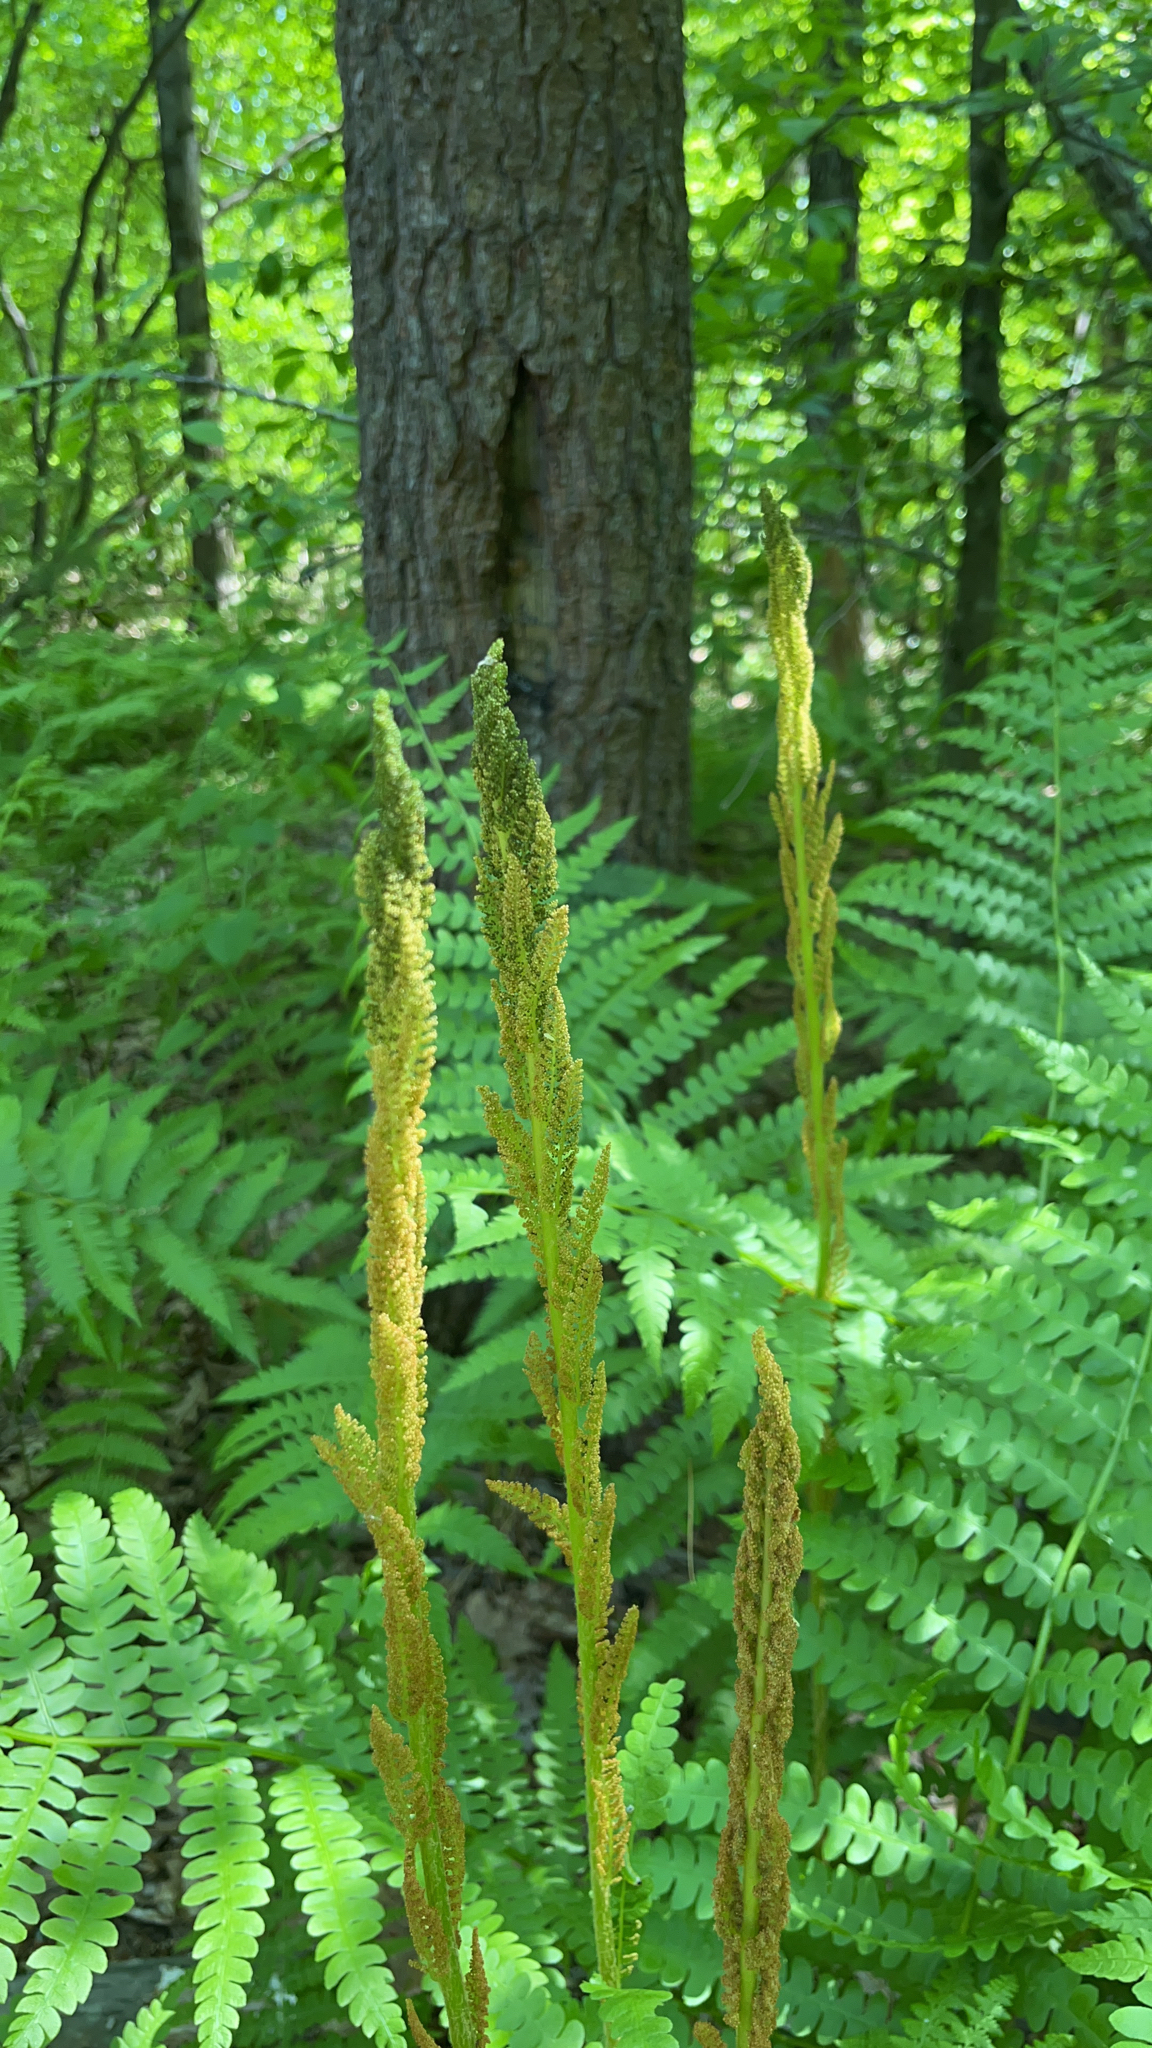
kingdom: Plantae
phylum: Tracheophyta
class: Polypodiopsida
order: Osmundales
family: Osmundaceae
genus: Osmundastrum
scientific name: Osmundastrum cinnamomeum
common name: Cinnamon fern
